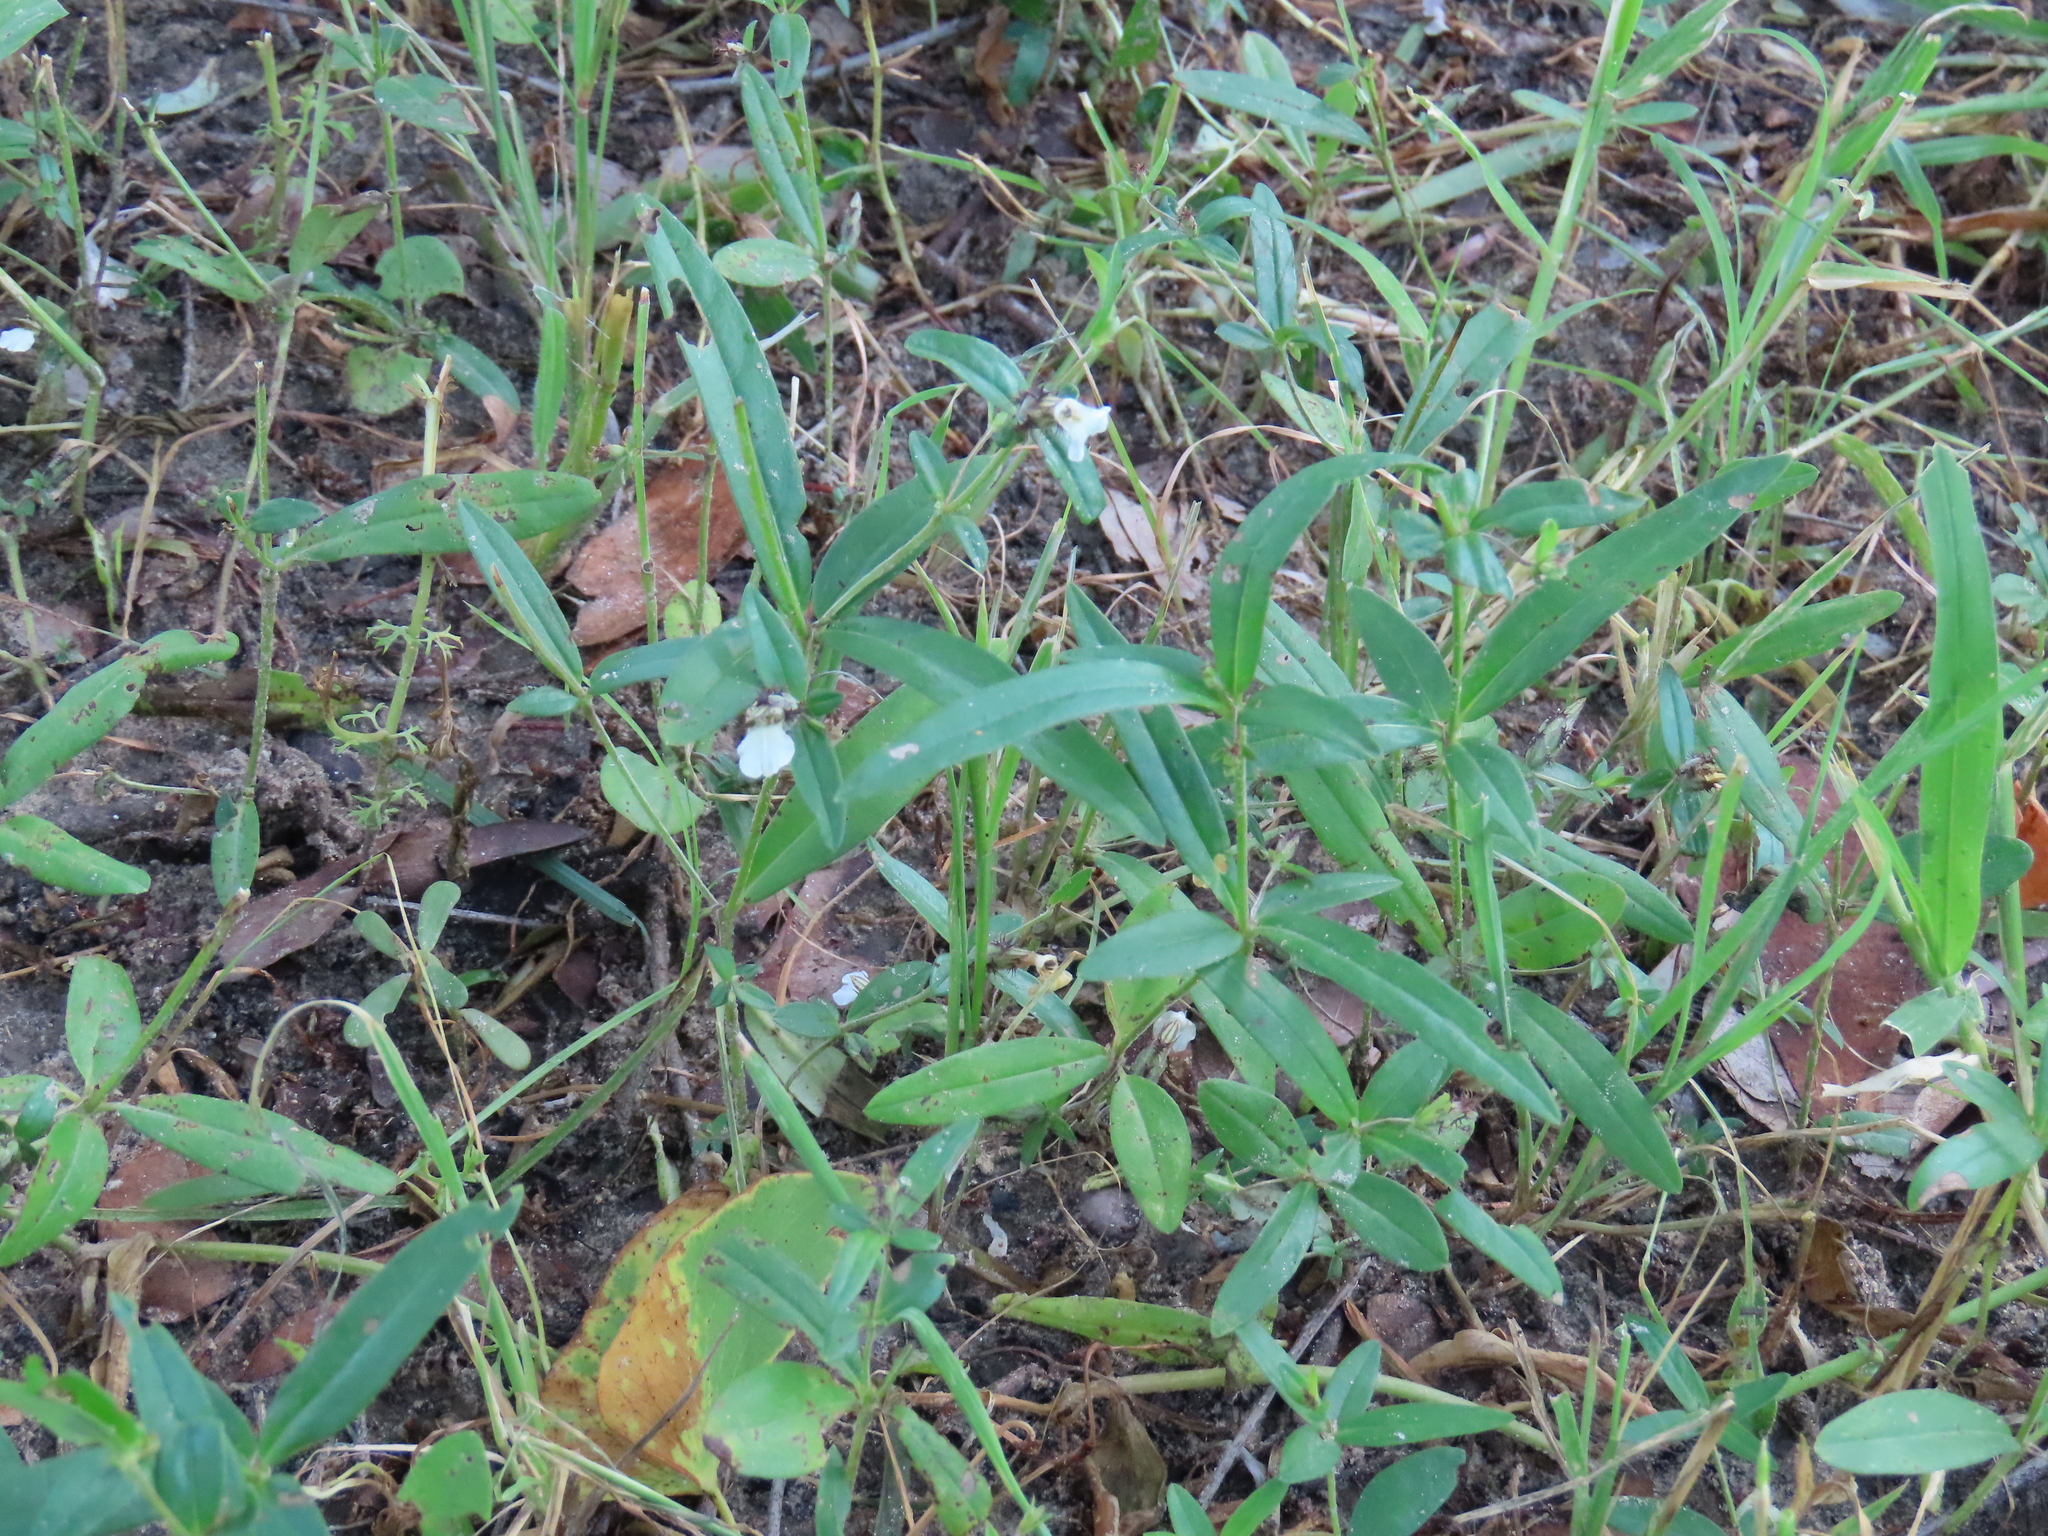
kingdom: Plantae
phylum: Tracheophyta
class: Magnoliopsida
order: Lamiales
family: Acanthaceae
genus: Blepharis
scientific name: Blepharis maderaspatensis
